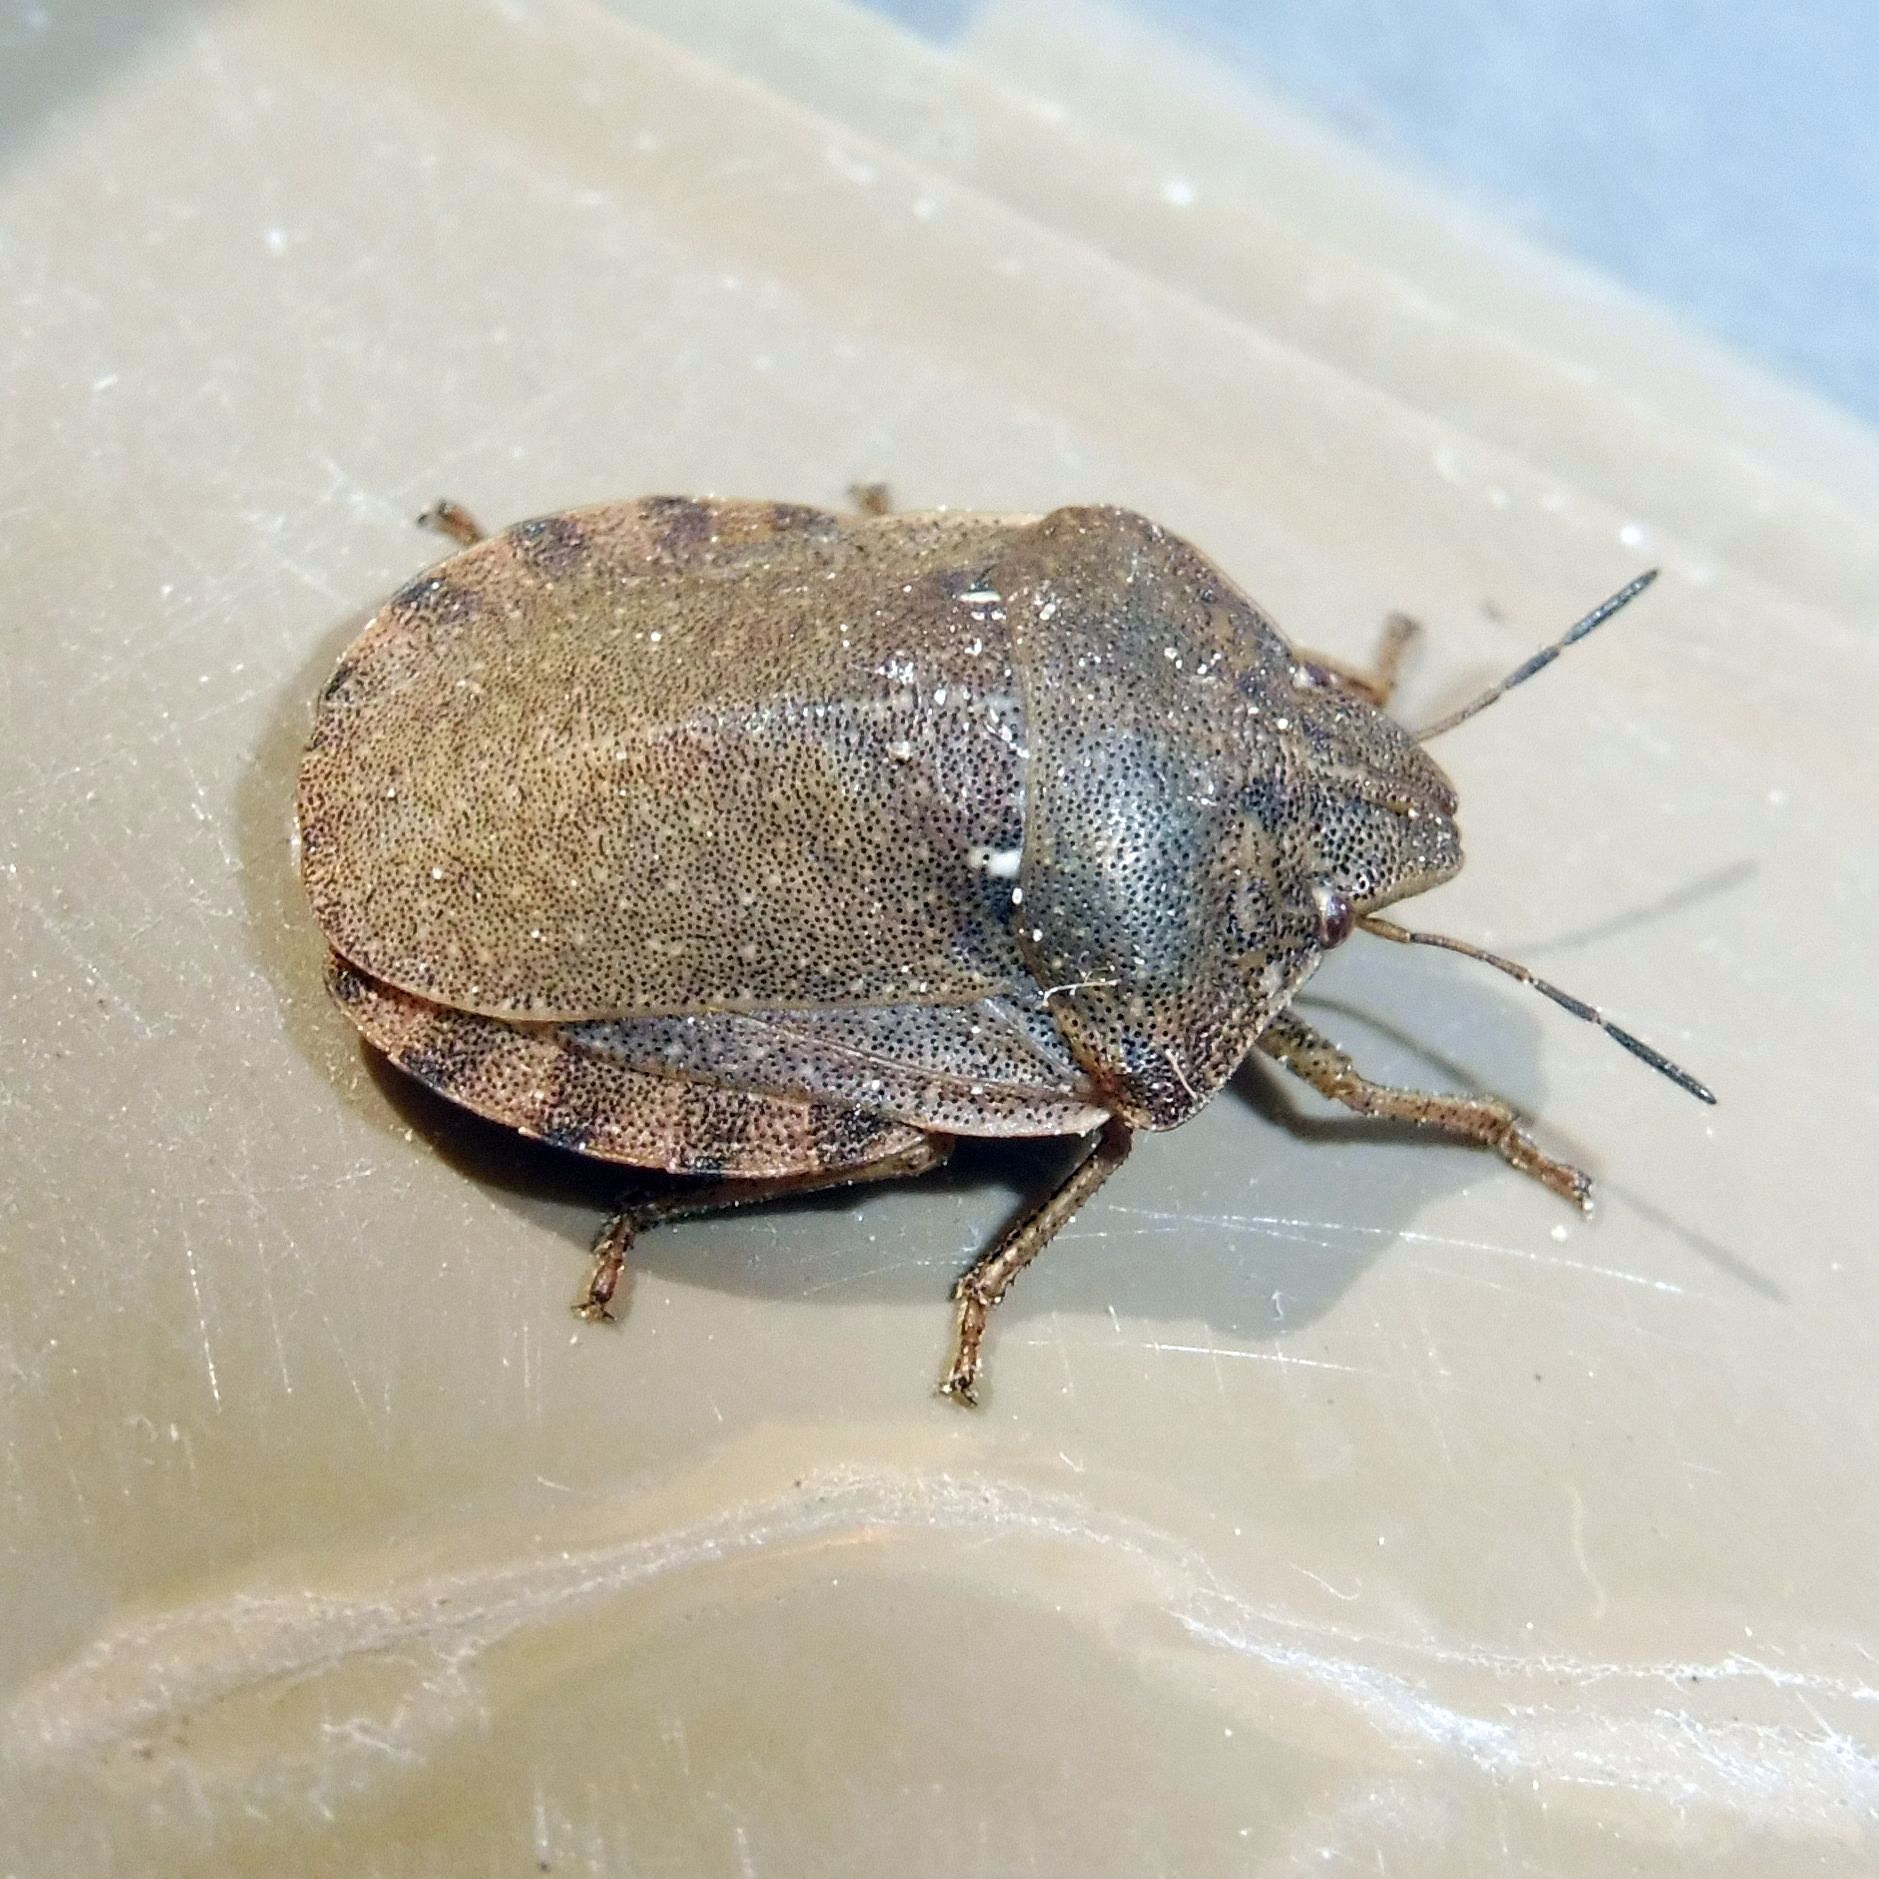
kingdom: Animalia
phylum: Arthropoda
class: Insecta
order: Hemiptera
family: Scutelleridae
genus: Eurygaster
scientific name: Eurygaster testudinaria
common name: Tortoise bug
